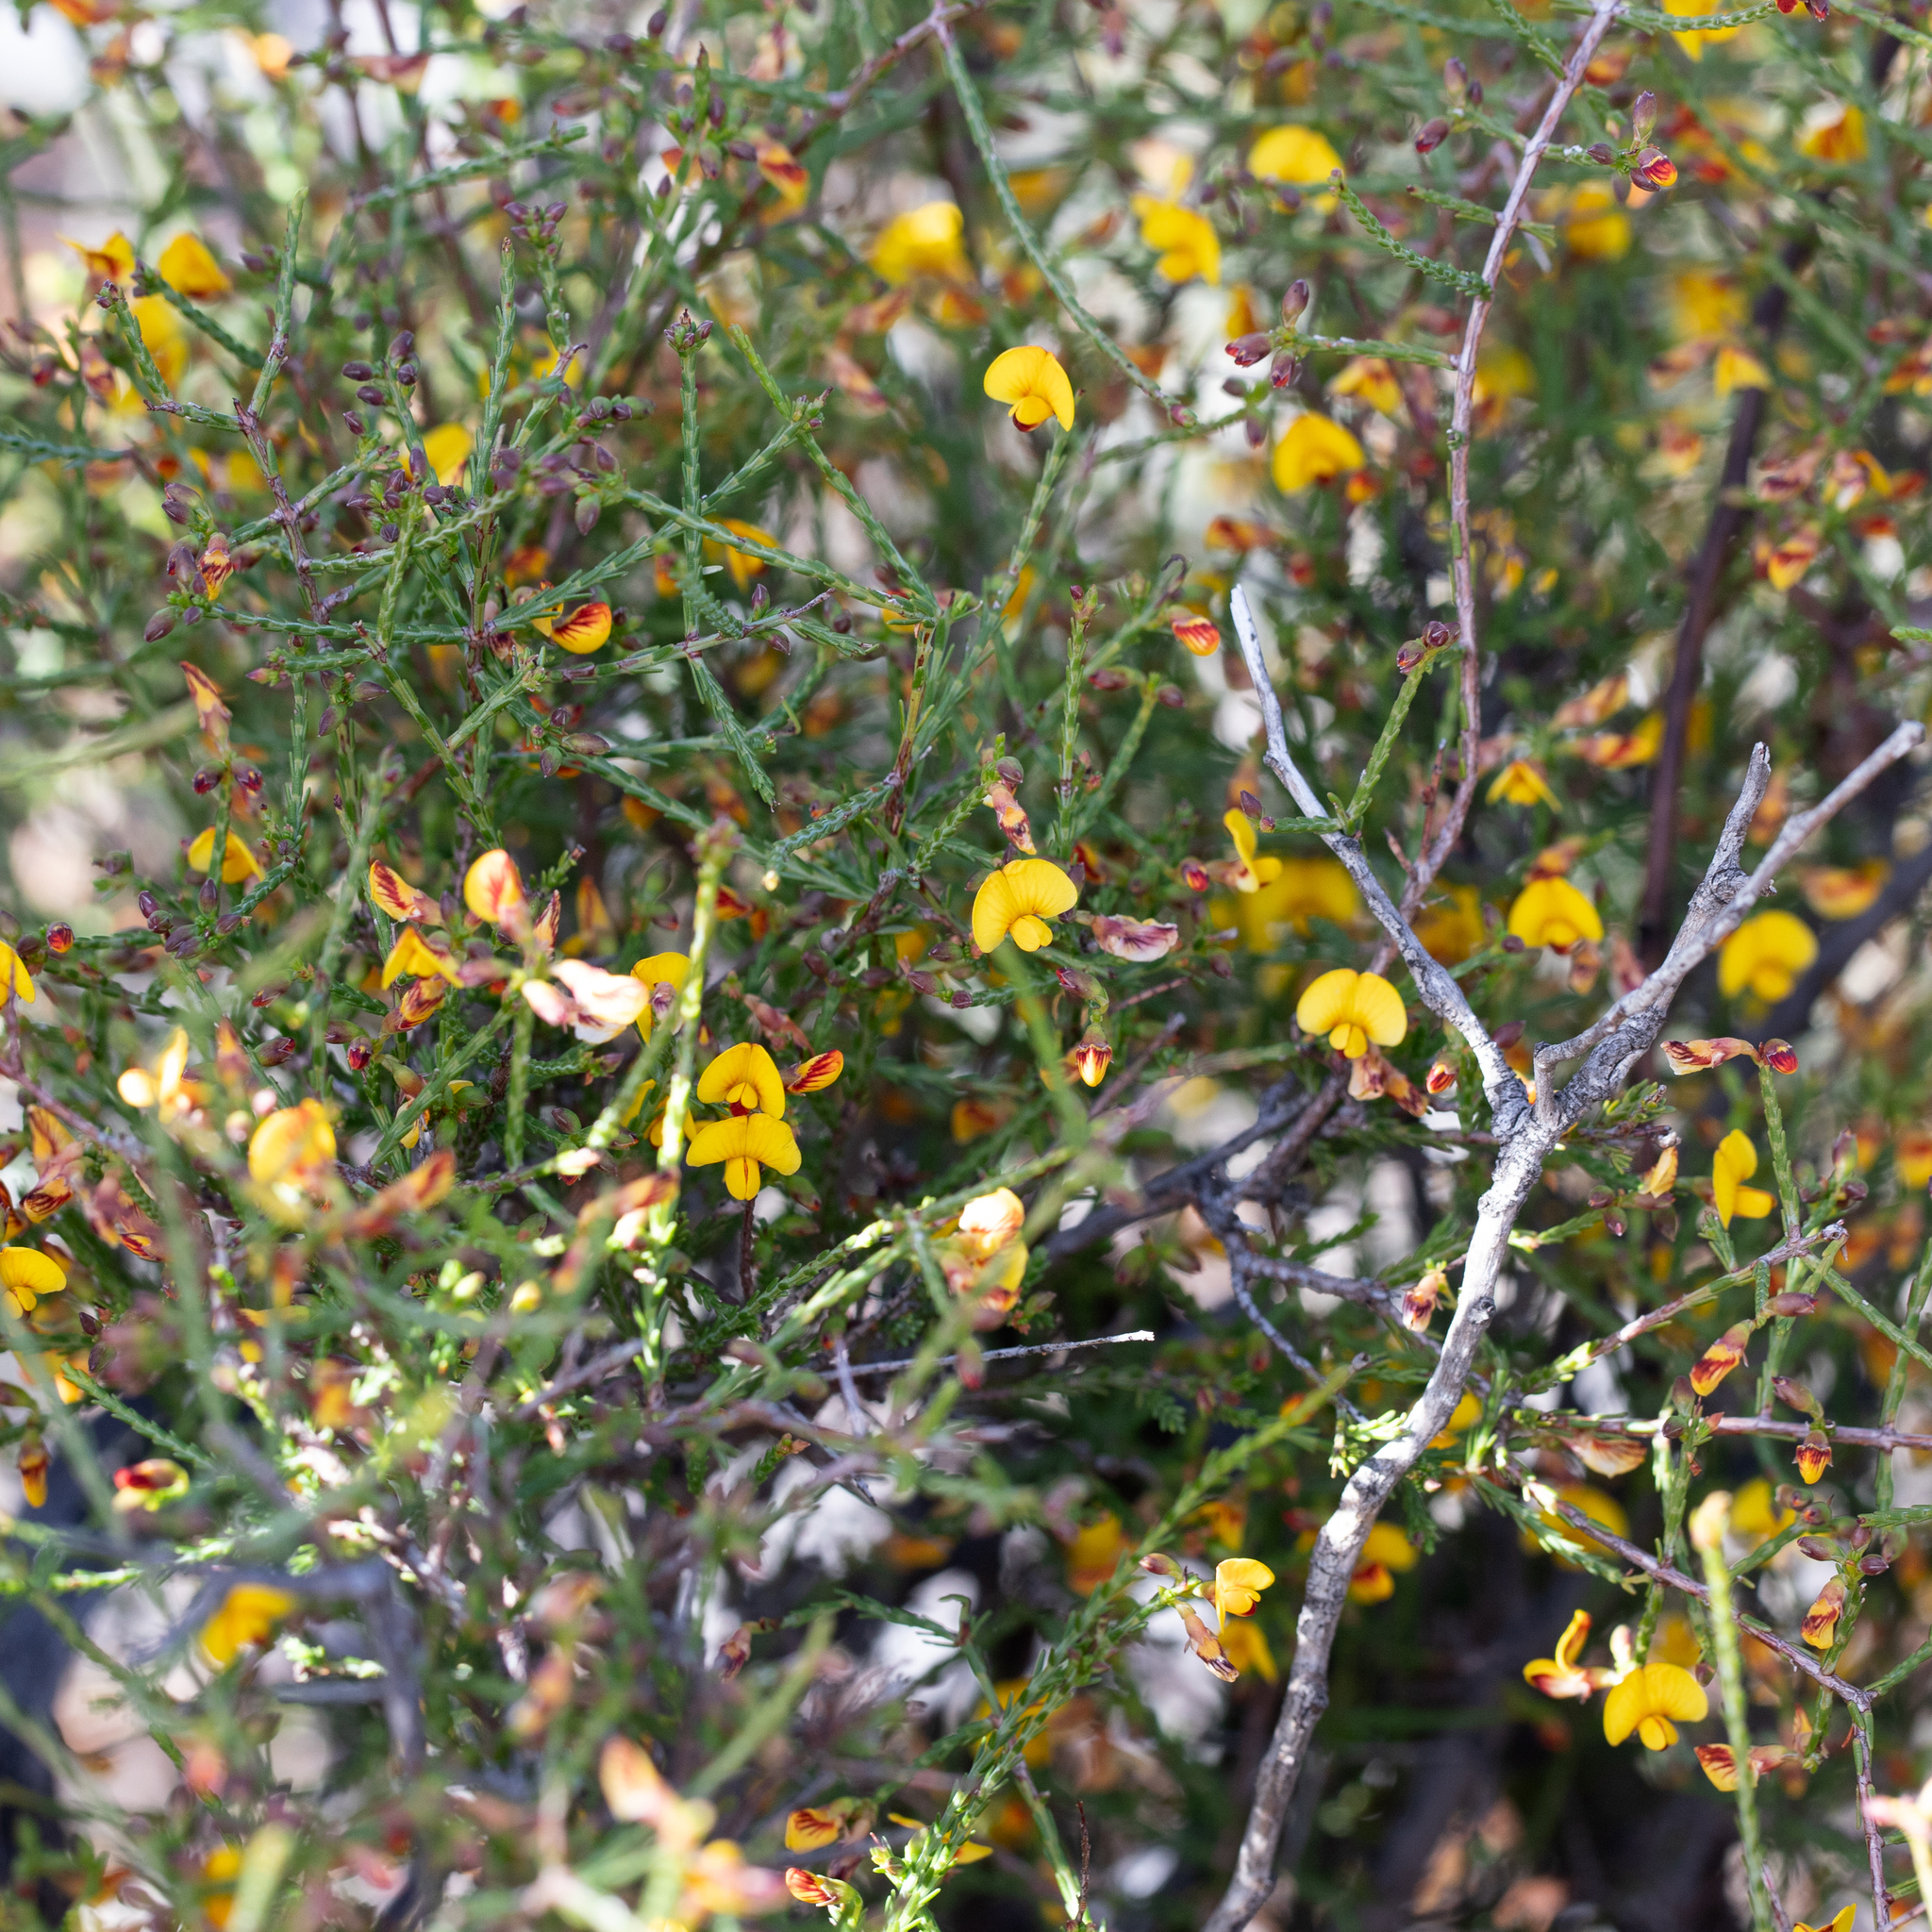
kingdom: Plantae
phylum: Tracheophyta
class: Magnoliopsida
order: Fabales
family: Fabaceae
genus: Eutaxia
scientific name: Eutaxia microphylla
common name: Mallee bush-pea
